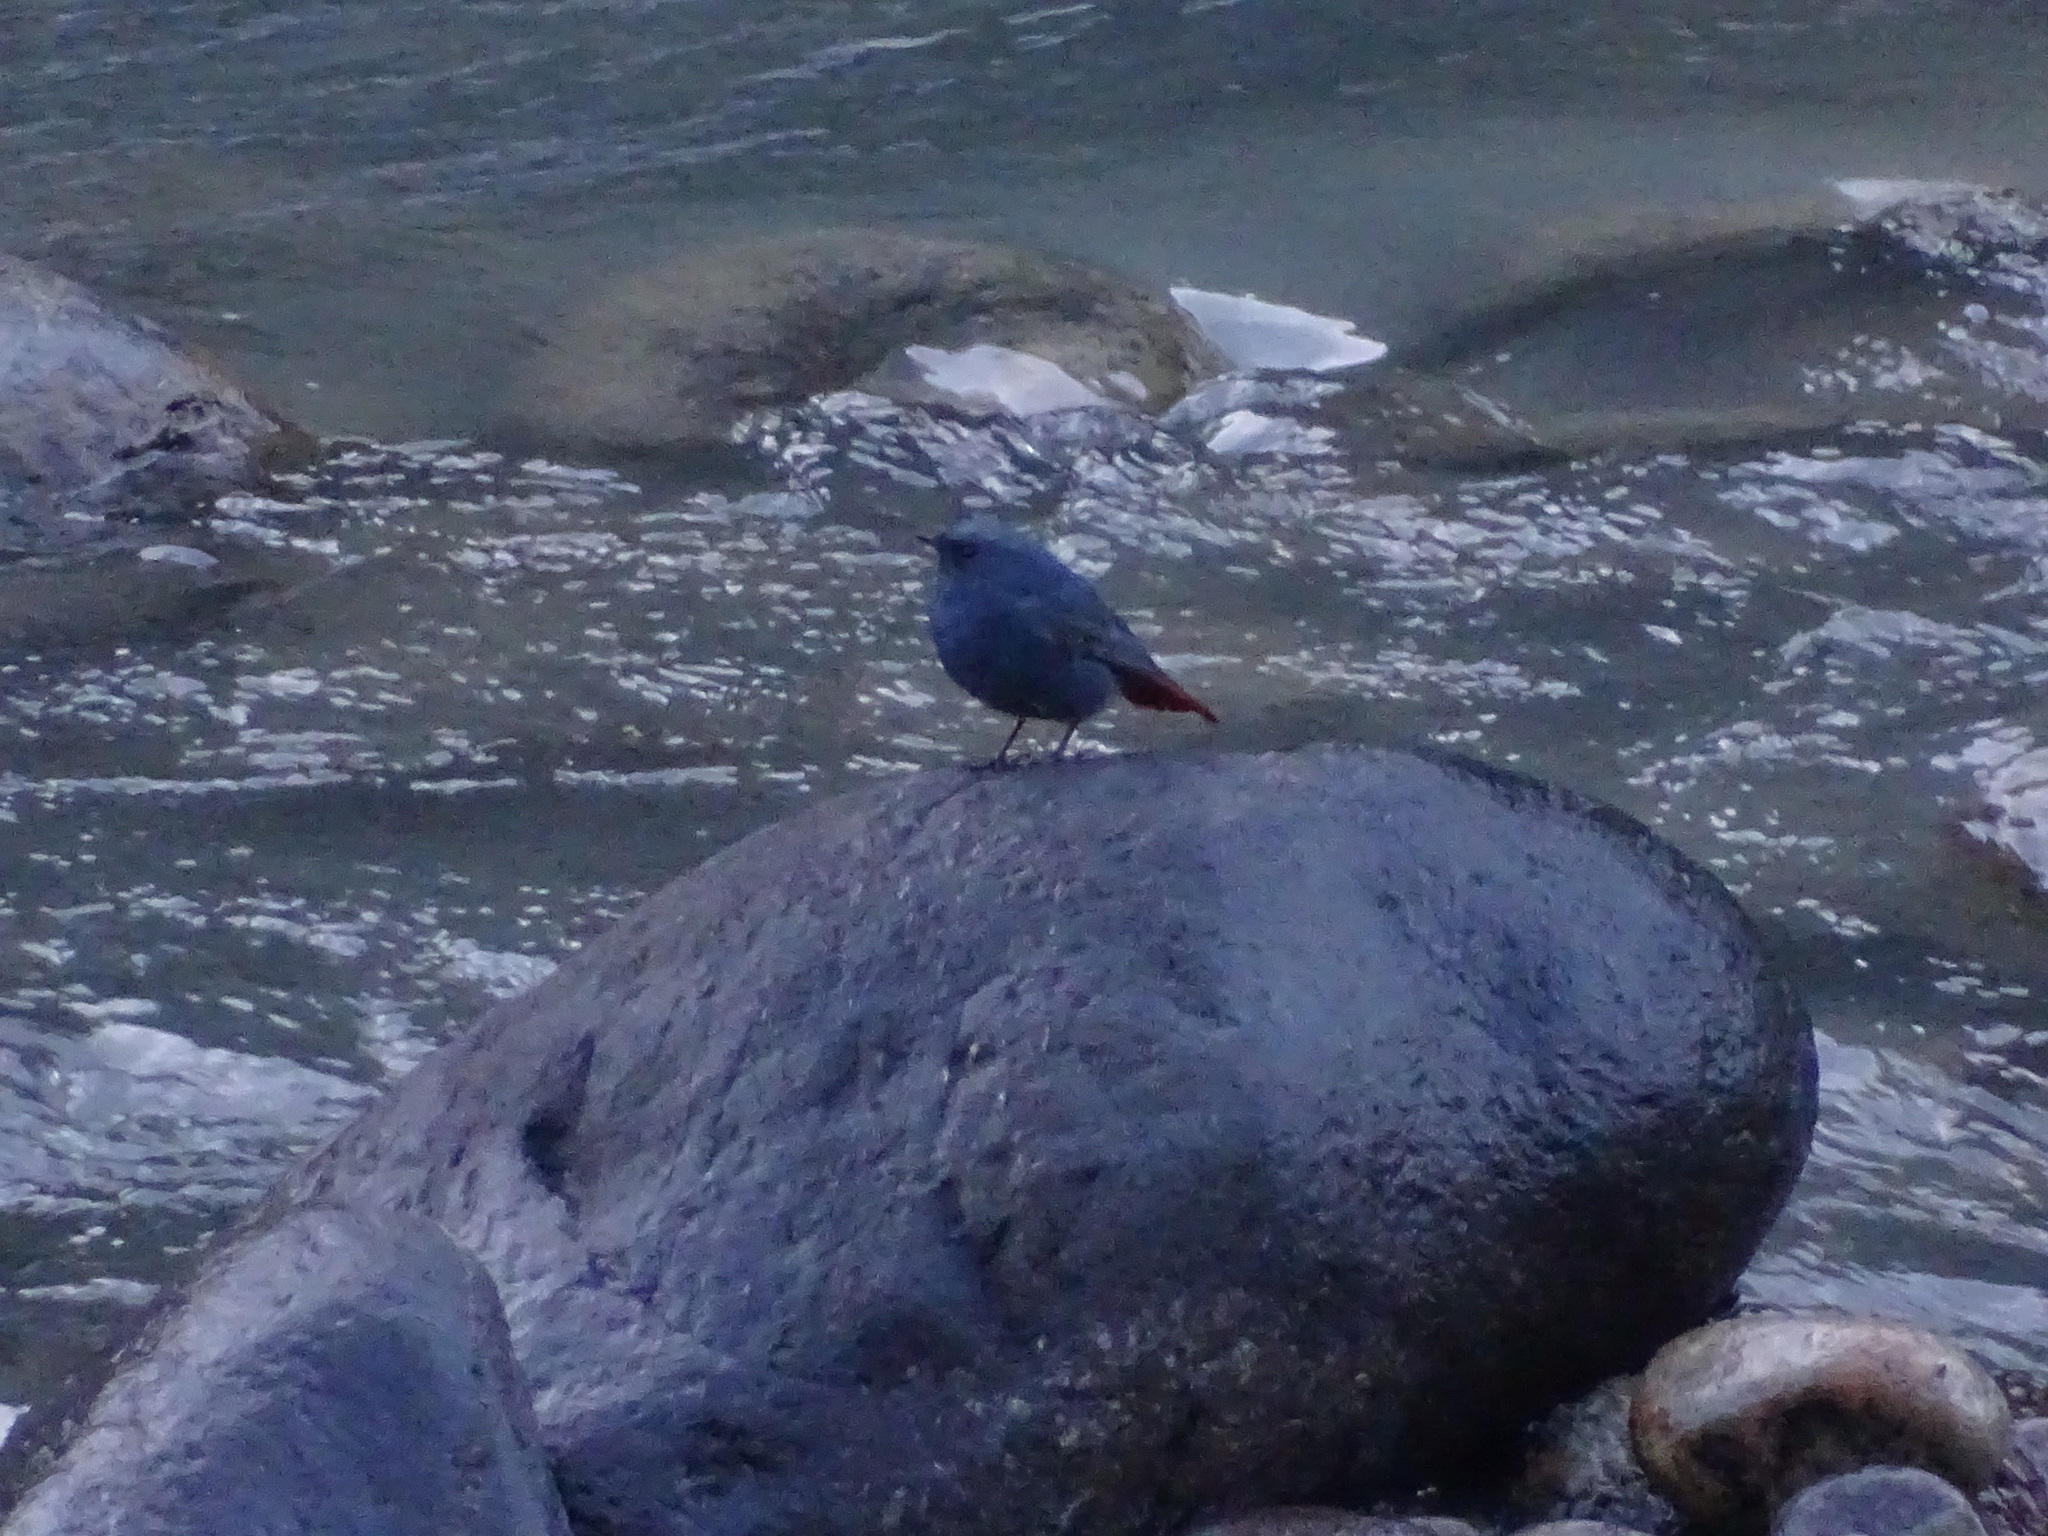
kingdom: Animalia
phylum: Chordata
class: Aves
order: Passeriformes
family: Muscicapidae
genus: Phoenicurus
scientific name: Phoenicurus fuliginosus
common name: Plumbeous water redstart
